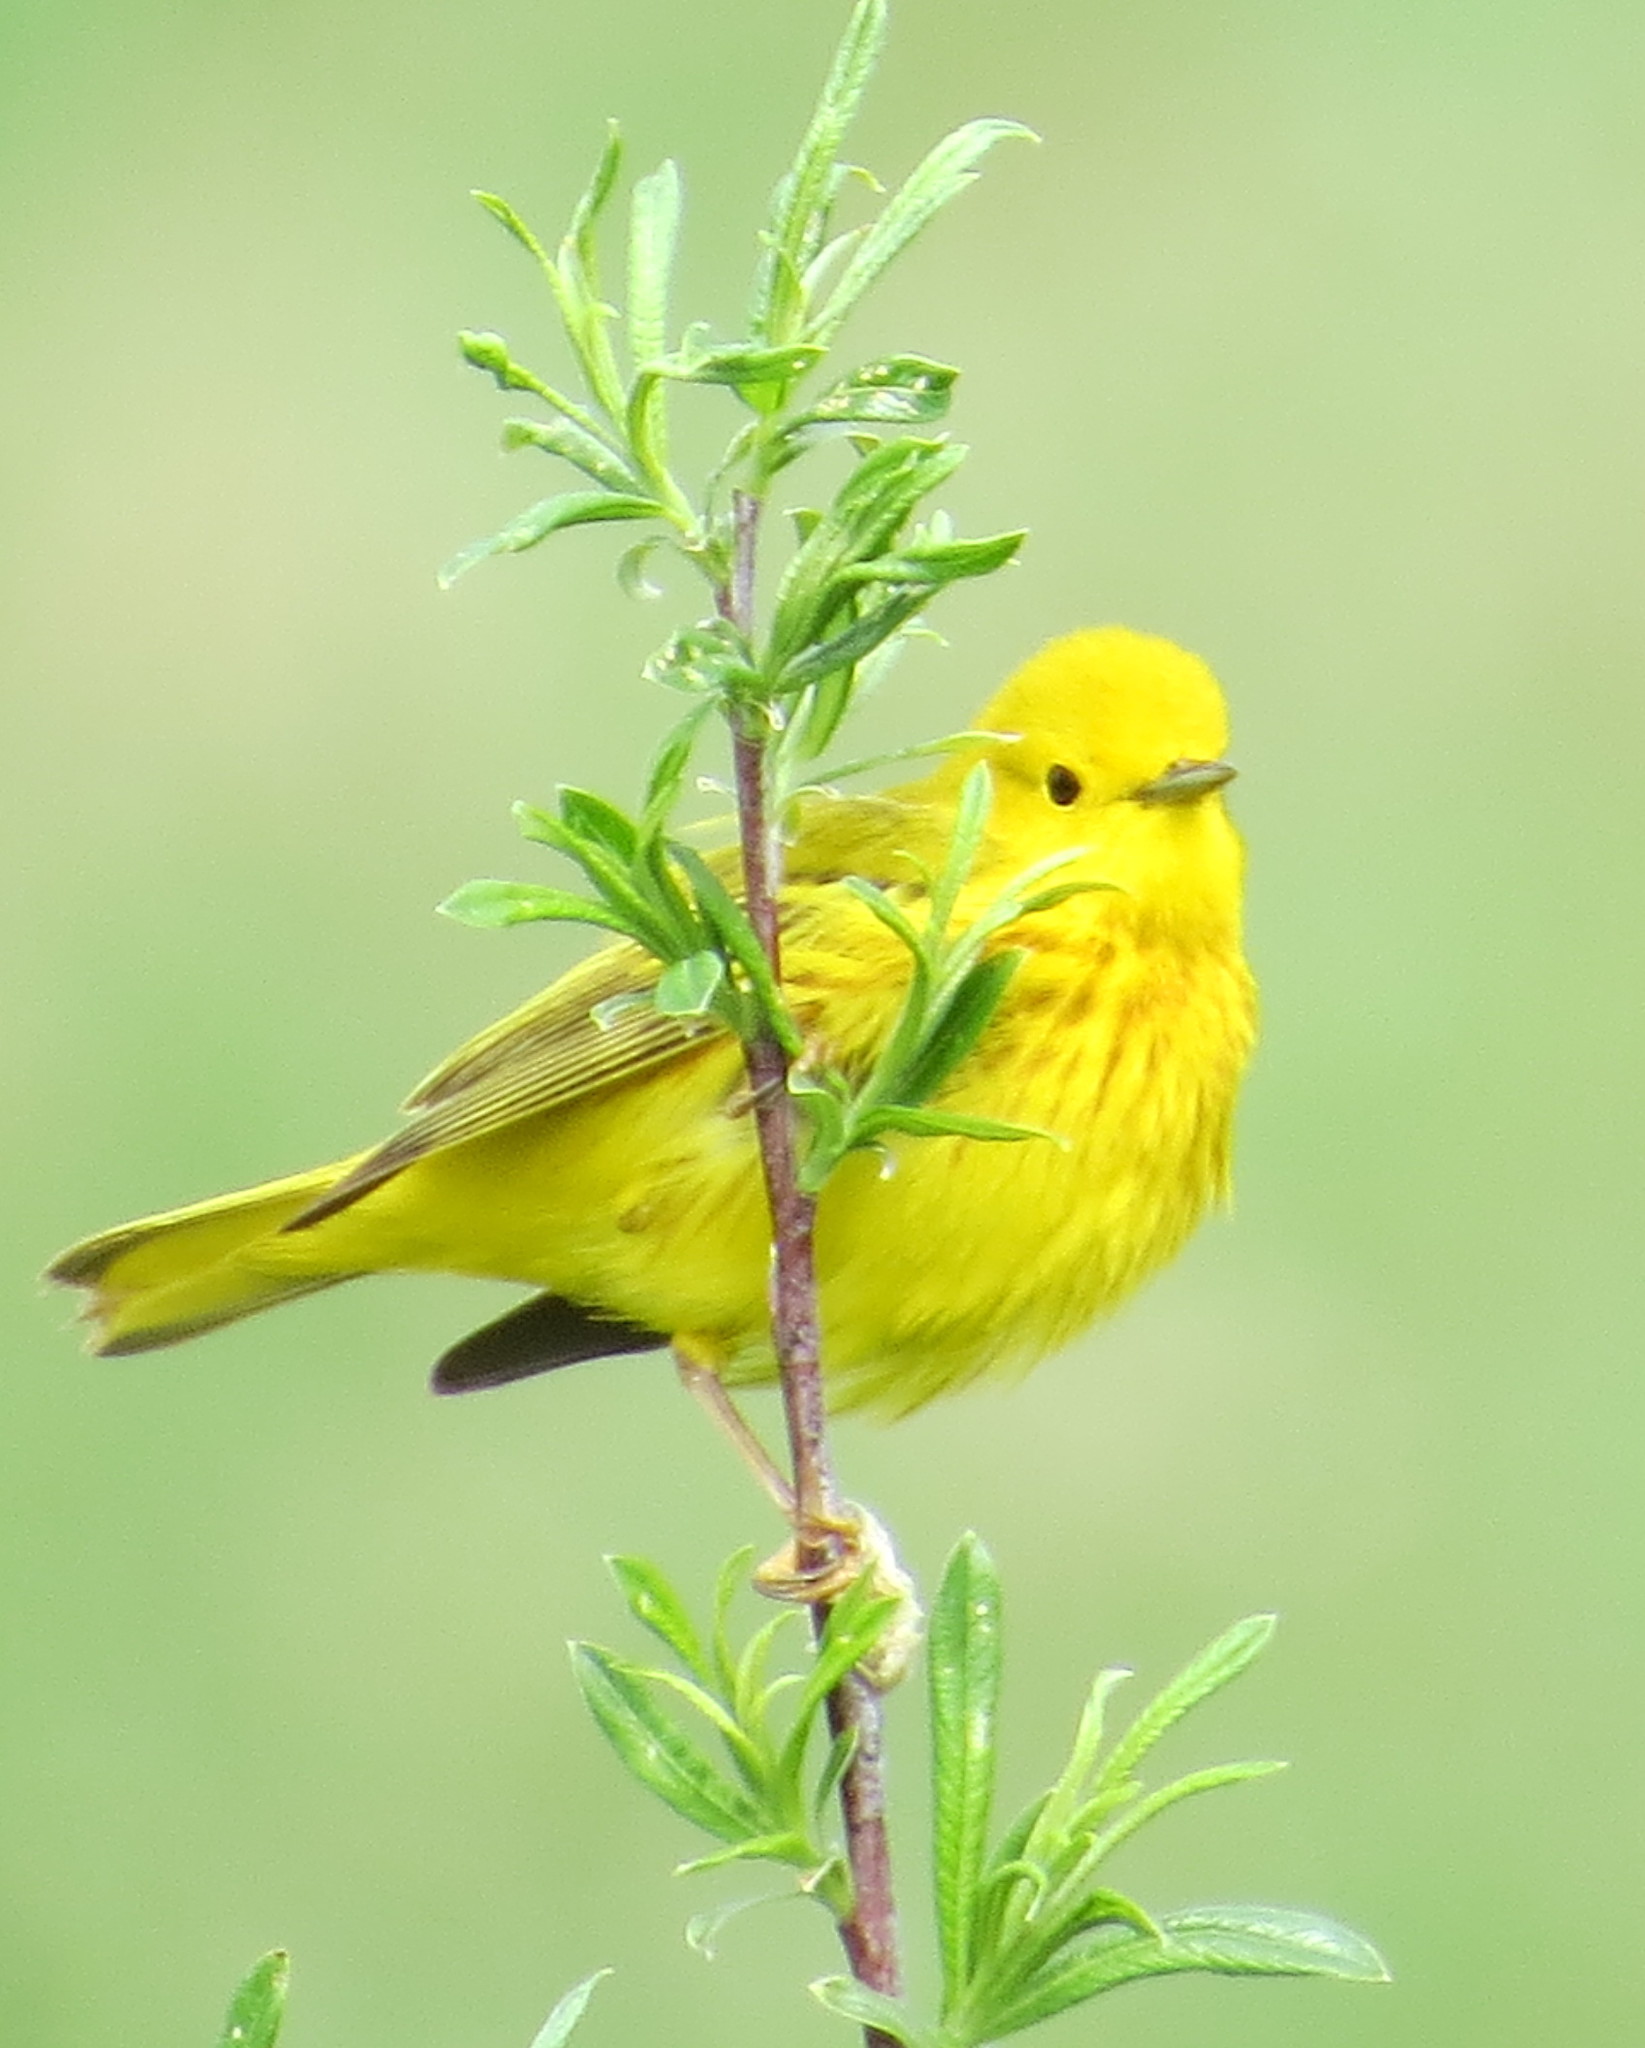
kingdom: Animalia
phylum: Chordata
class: Aves
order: Passeriformes
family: Parulidae
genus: Setophaga
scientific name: Setophaga petechia
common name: Yellow warbler
